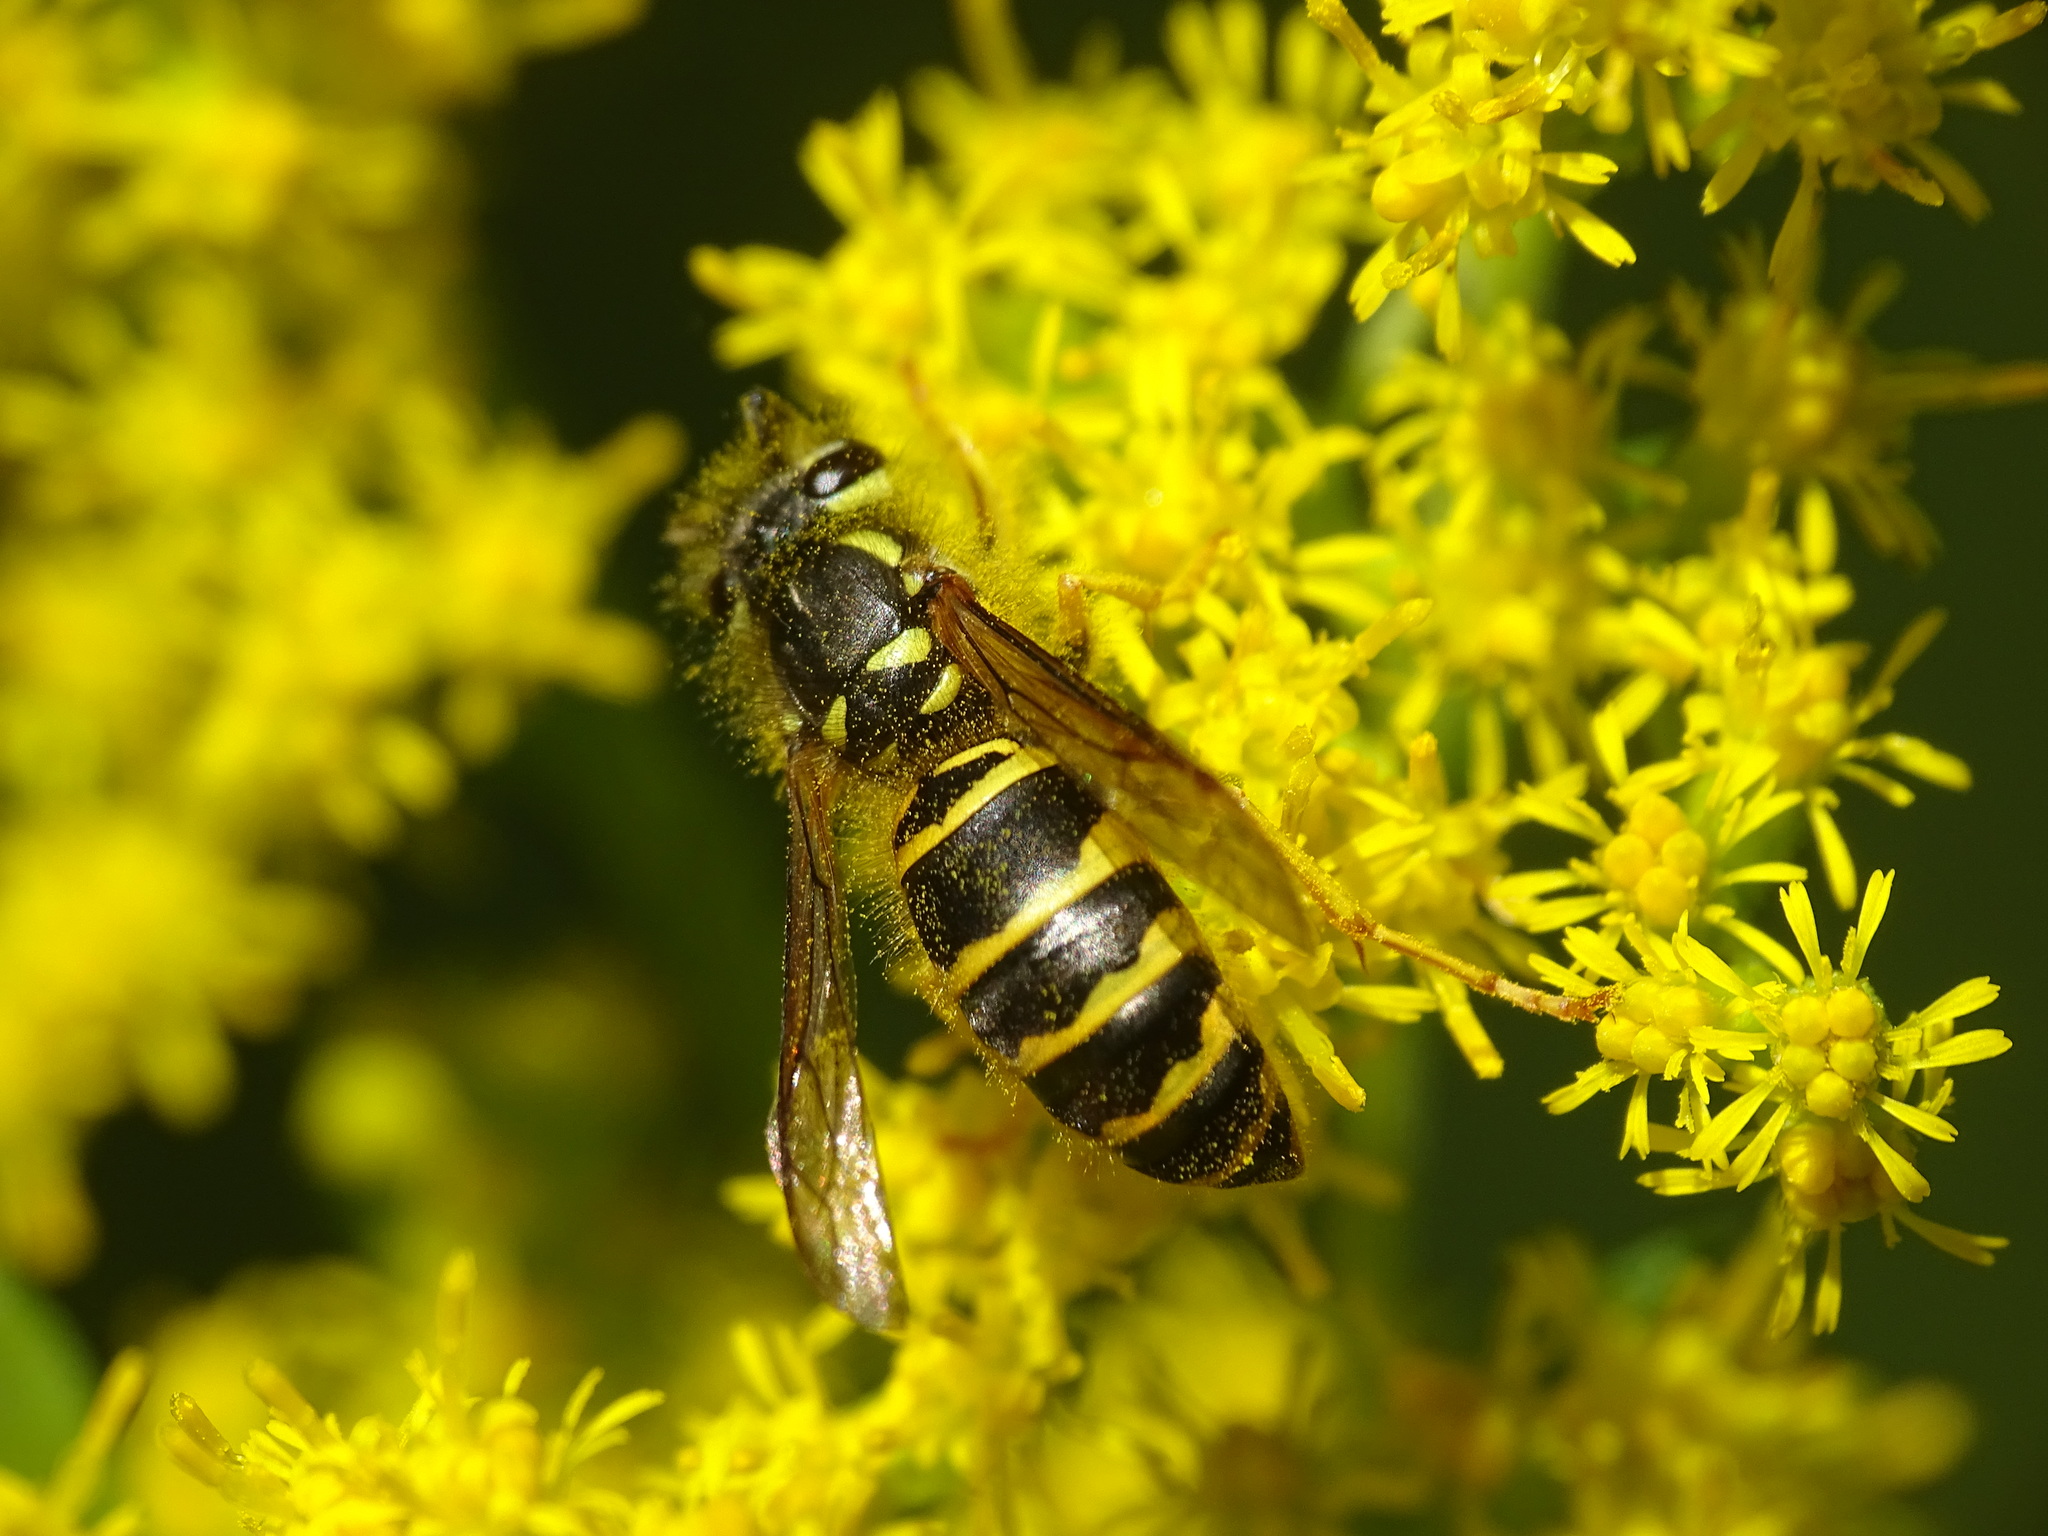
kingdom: Animalia
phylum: Arthropoda
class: Insecta
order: Hymenoptera
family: Vespidae
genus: Vespula
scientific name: Vespula maculifrons
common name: Eastern yellowjacket
